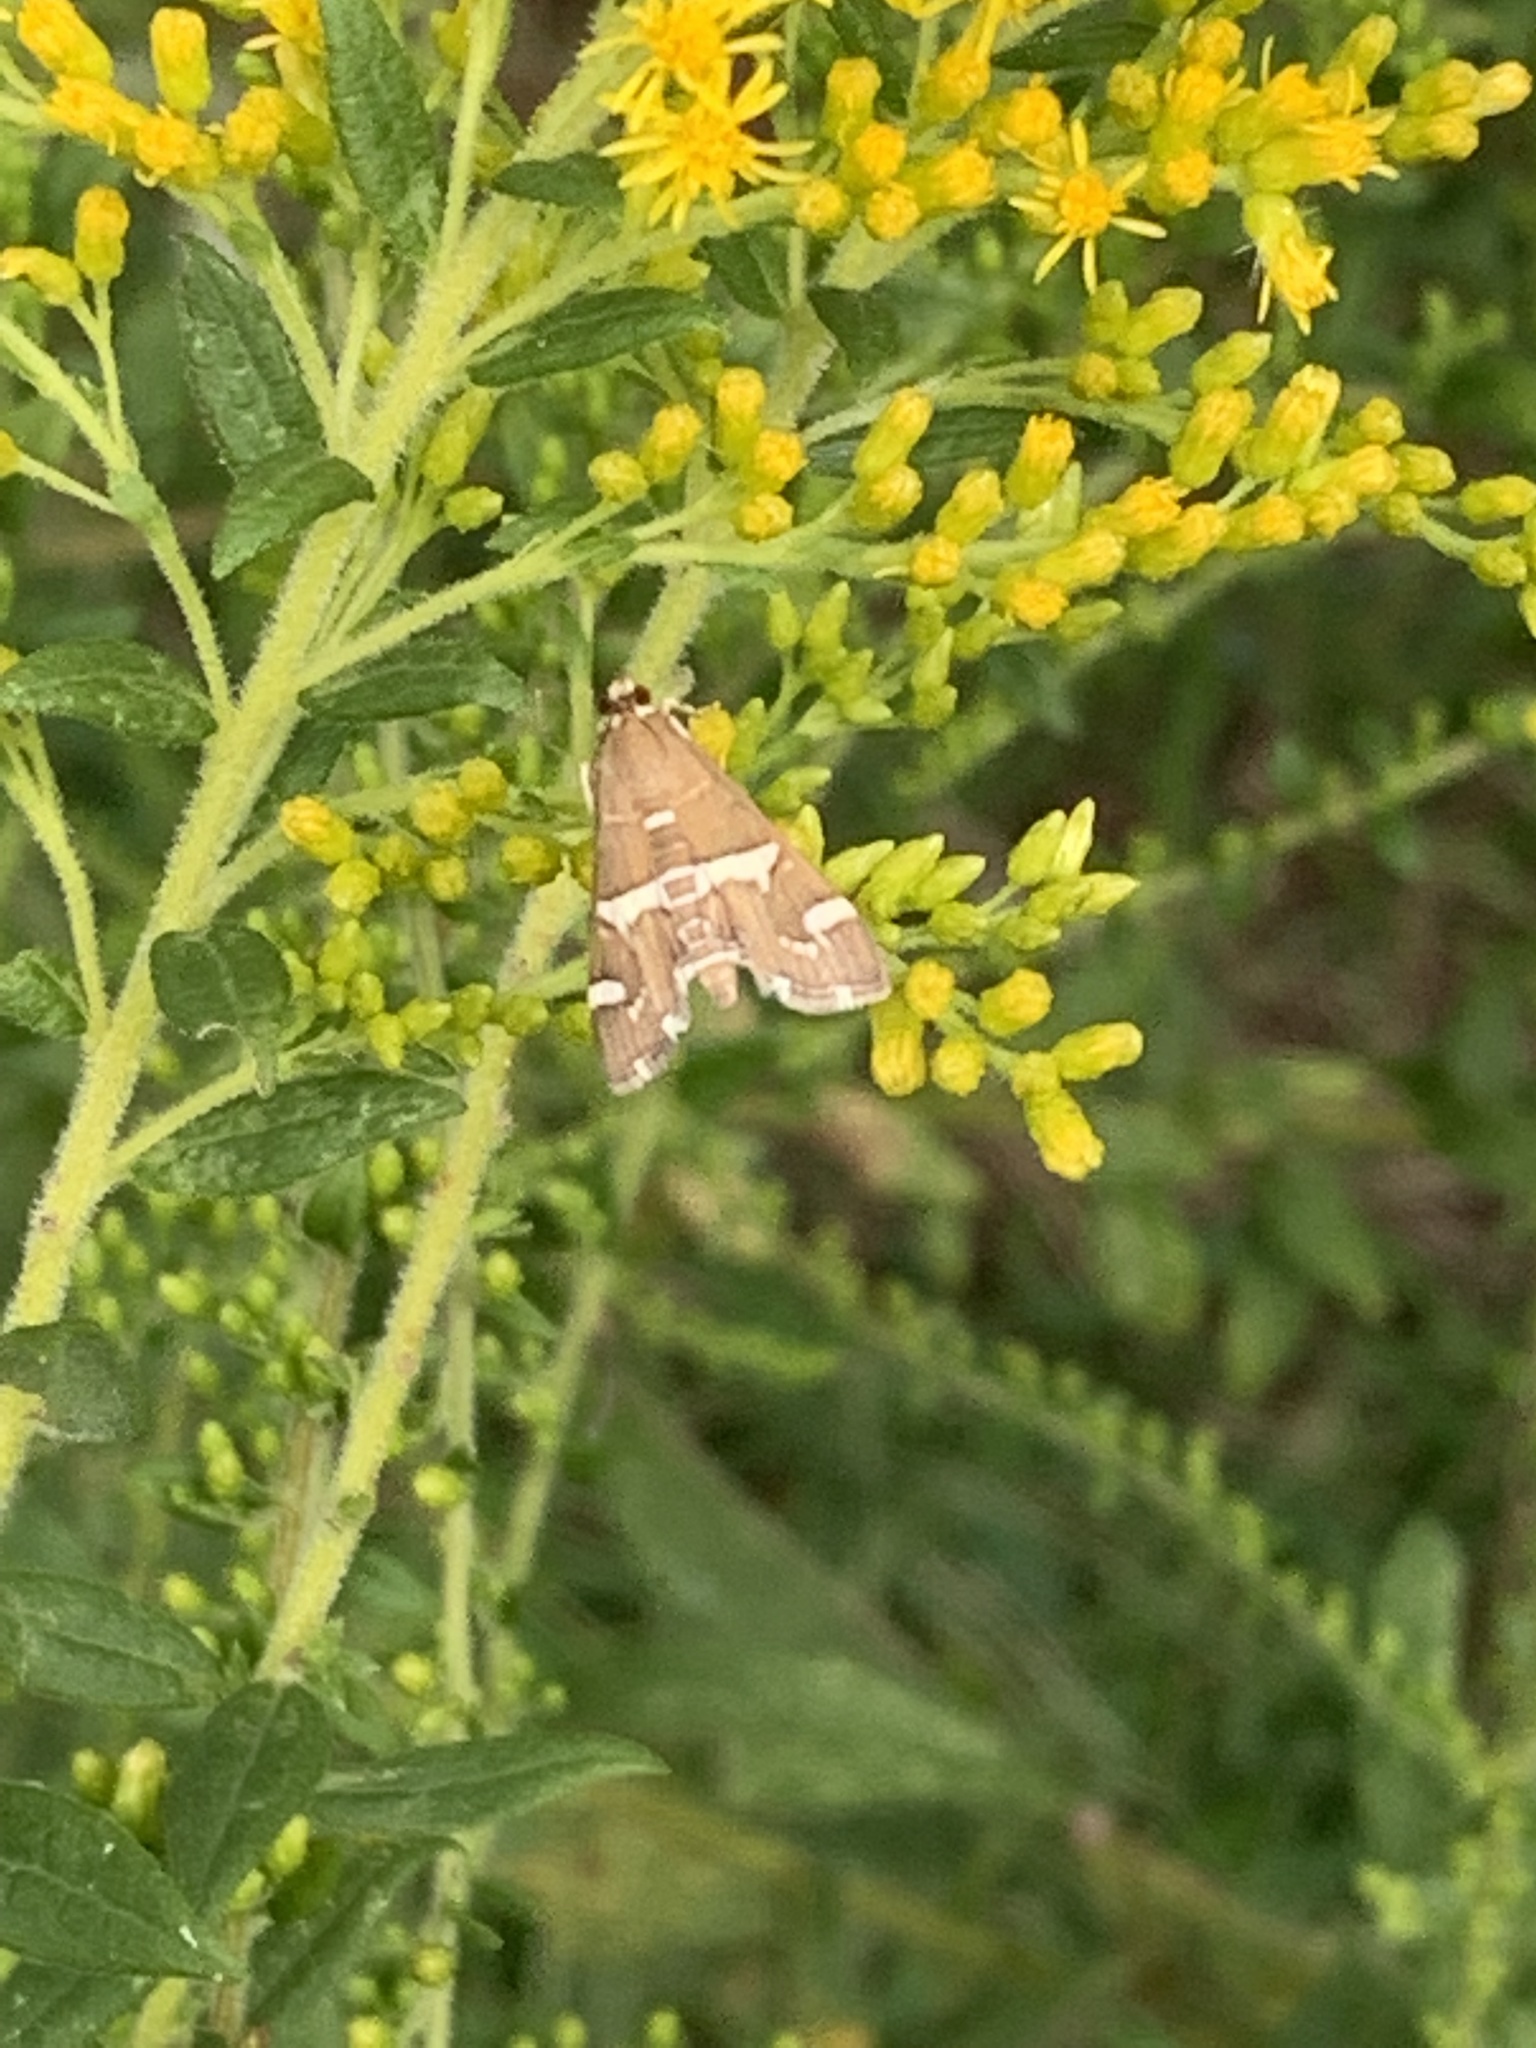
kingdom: Animalia
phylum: Arthropoda
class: Insecta
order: Lepidoptera
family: Crambidae
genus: Spoladea
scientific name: Spoladea recurvalis
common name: Beet webworm moth
